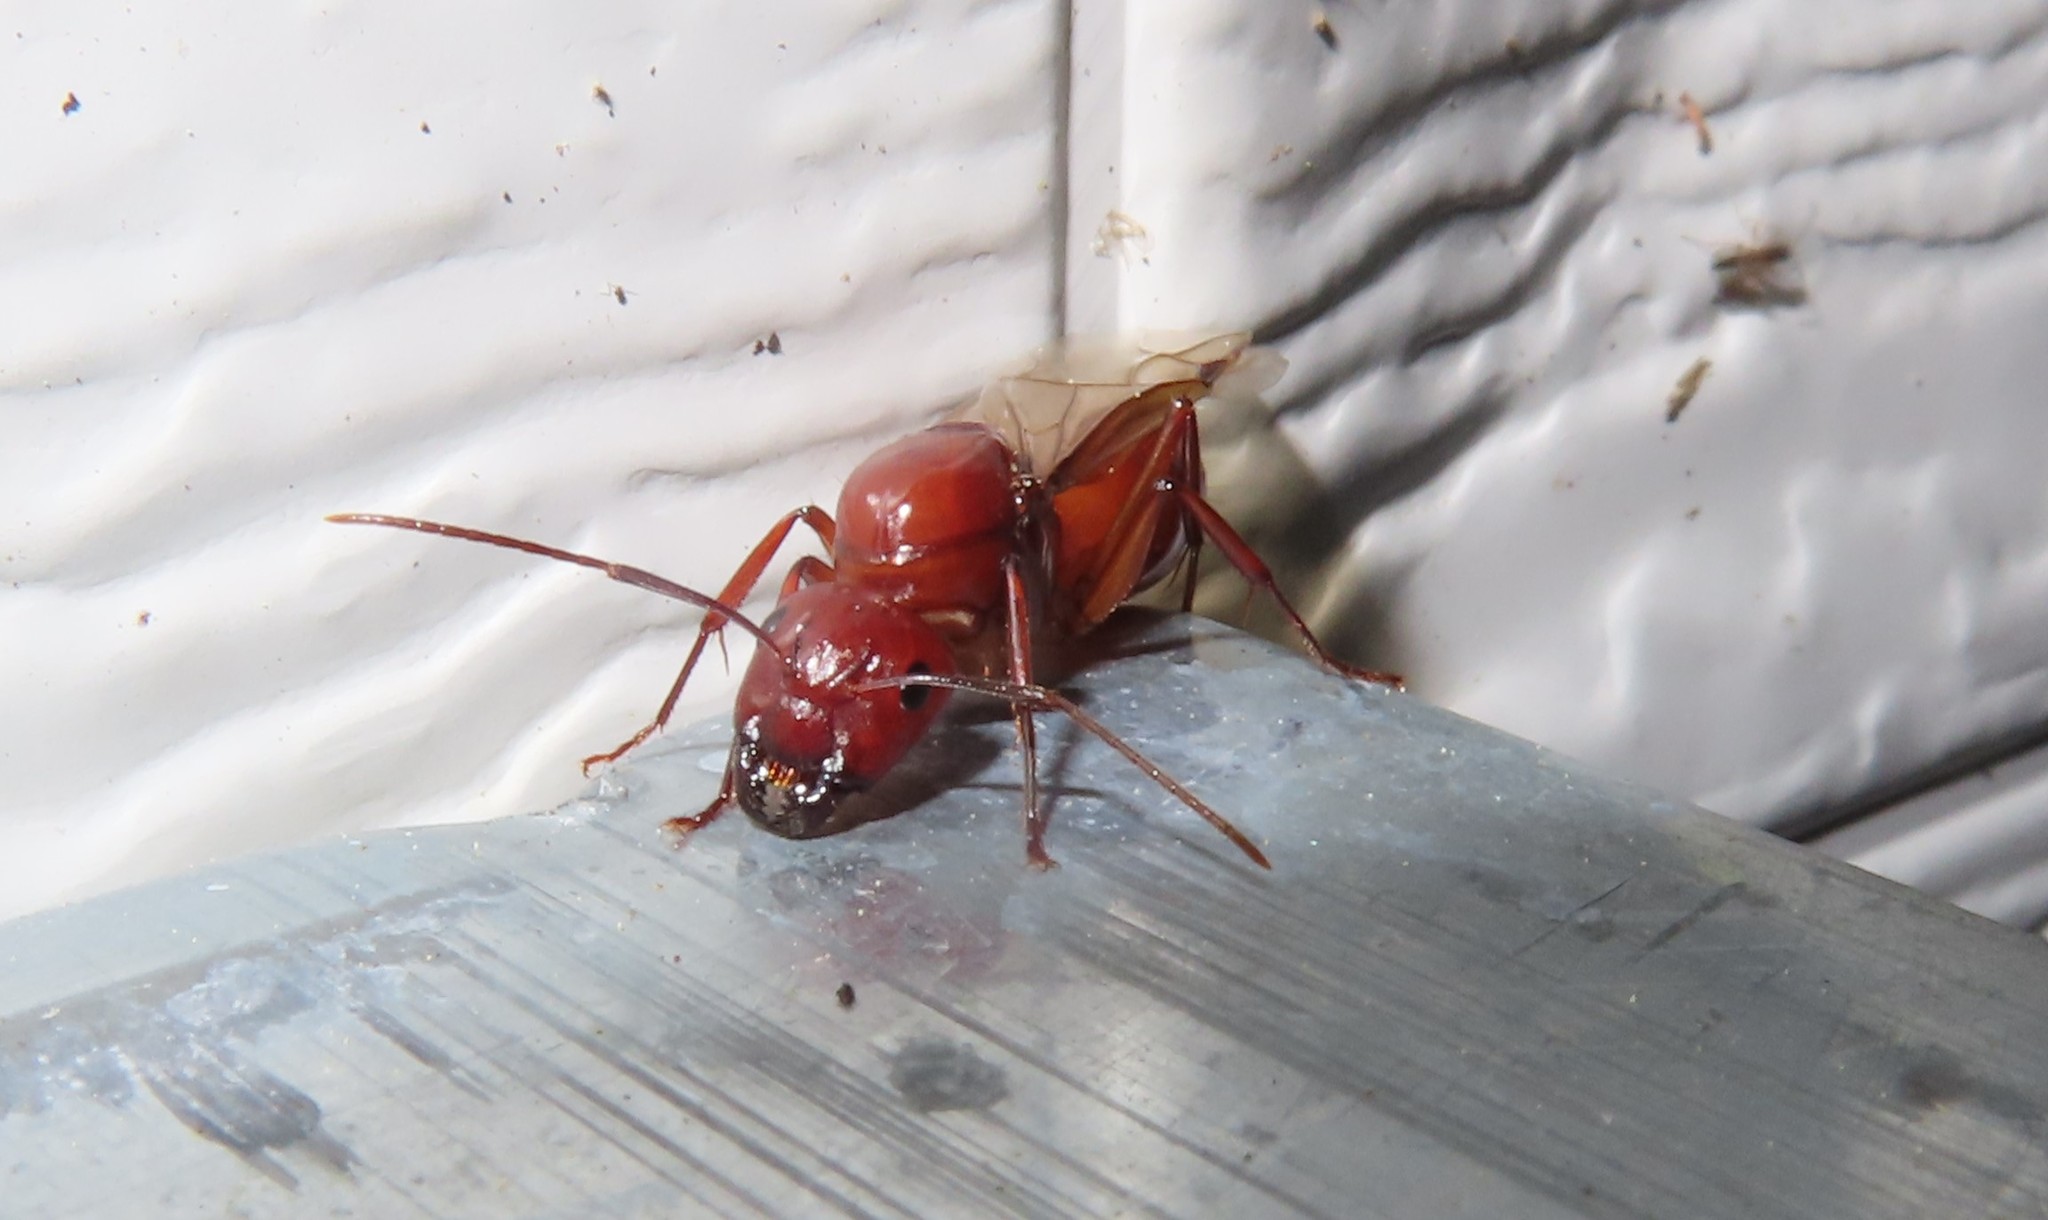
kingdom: Animalia
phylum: Arthropoda
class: Insecta
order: Hymenoptera
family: Formicidae
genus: Camponotus
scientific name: Camponotus castaneus
